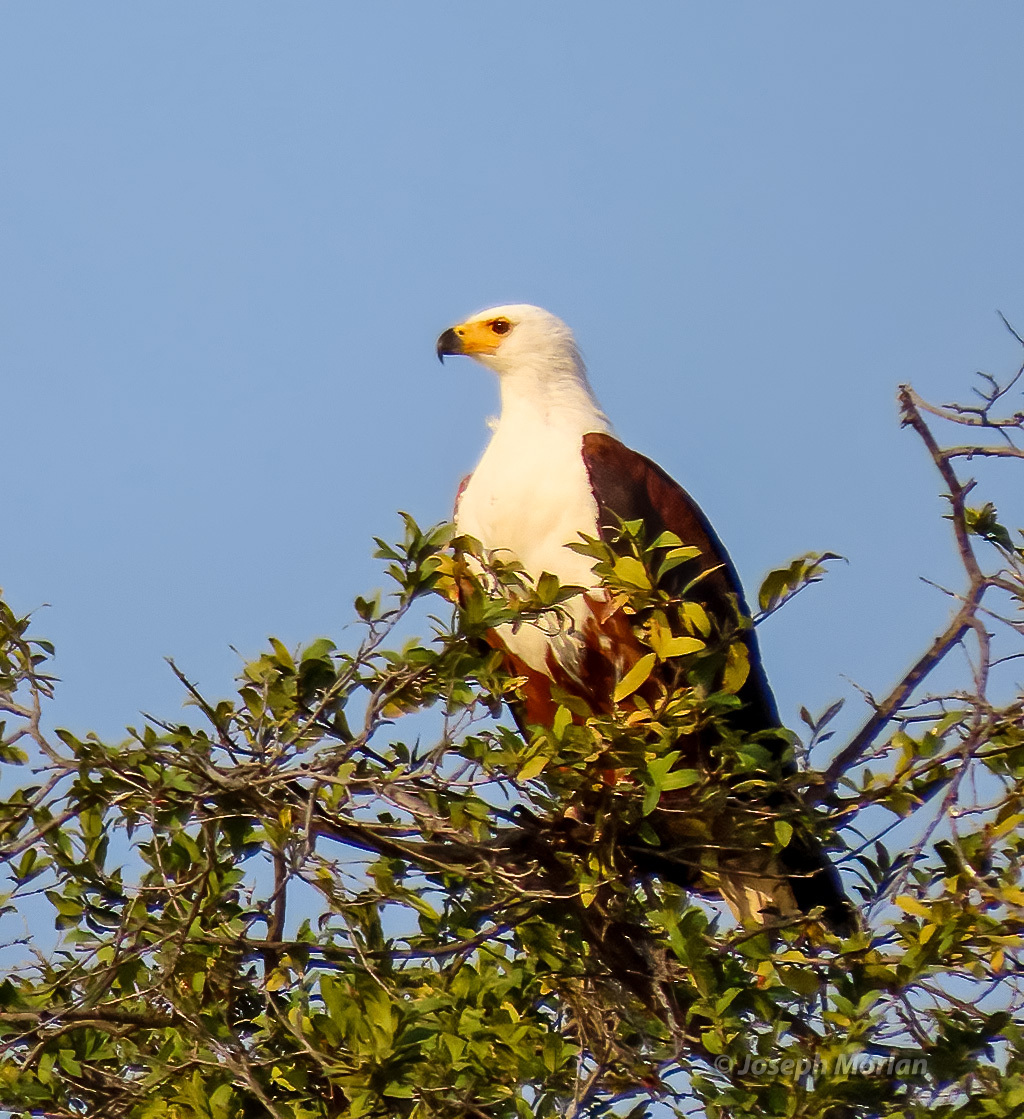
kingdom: Animalia
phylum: Chordata
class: Aves
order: Accipitriformes
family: Accipitridae
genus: Haliaeetus
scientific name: Haliaeetus vocifer
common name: African fish eagle
